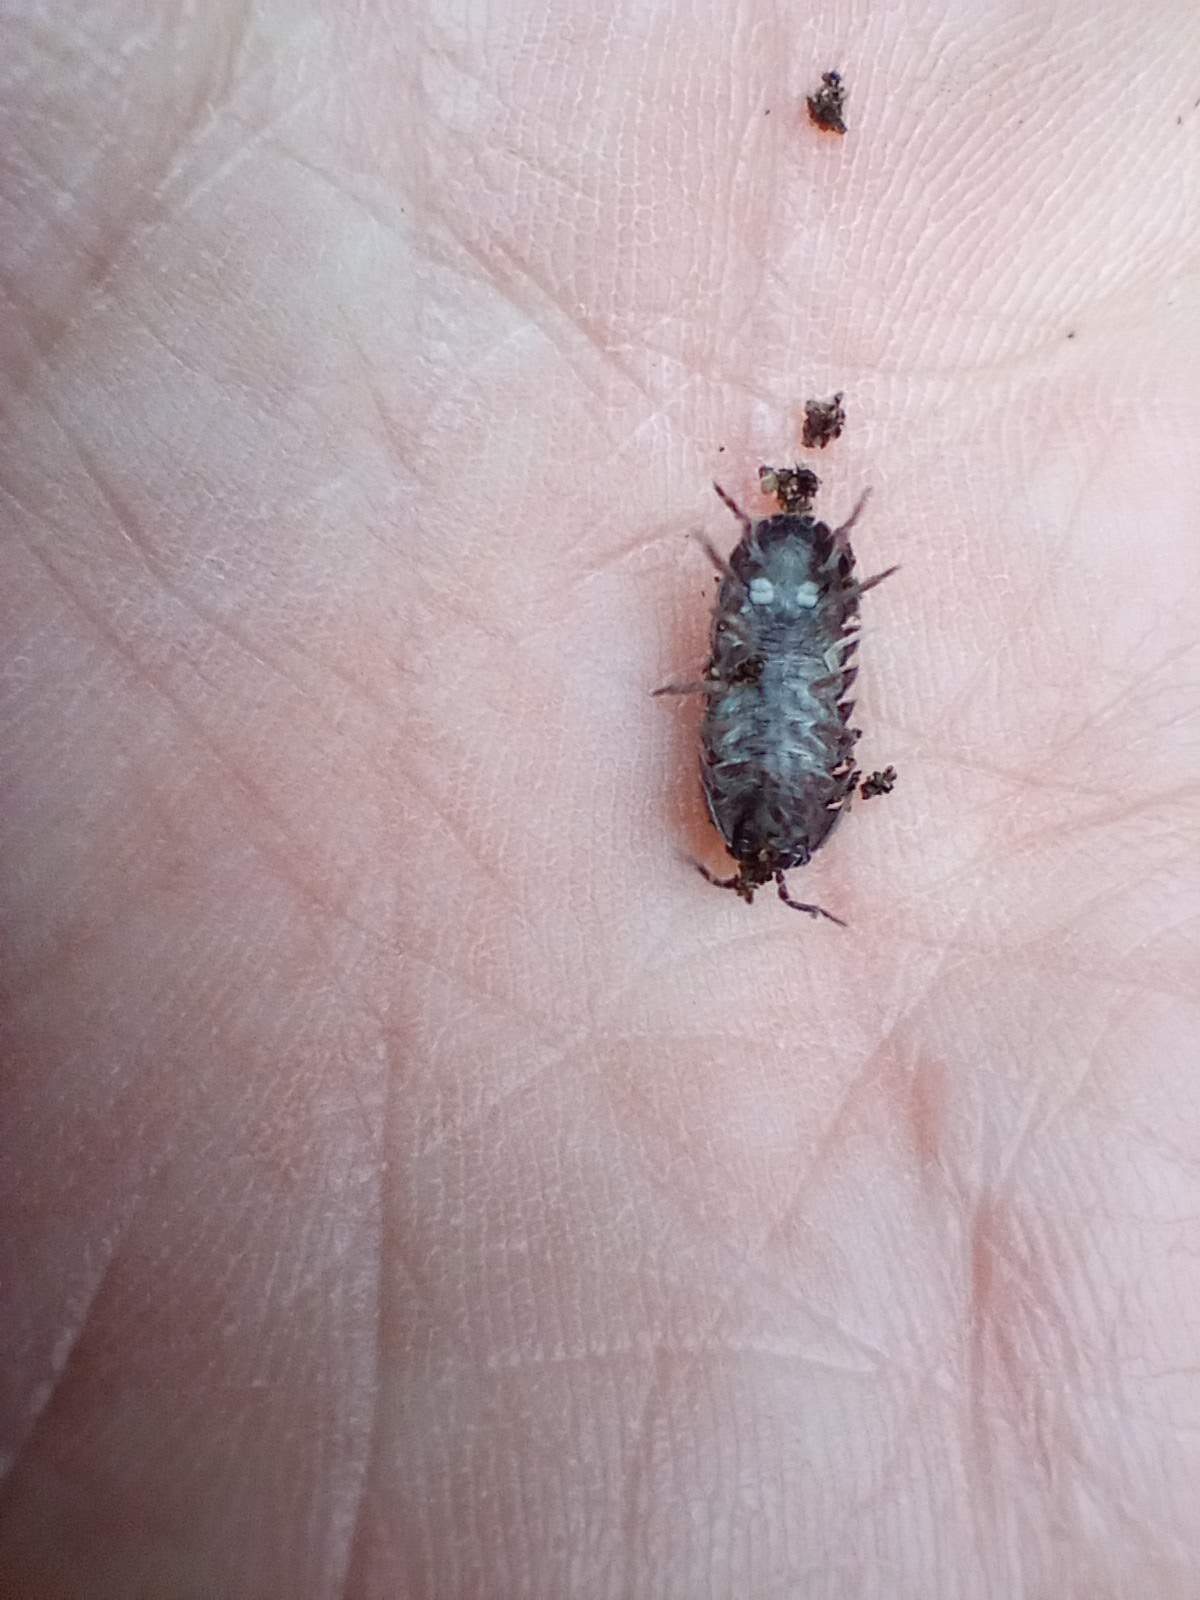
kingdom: Animalia
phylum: Arthropoda
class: Malacostraca
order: Isopoda
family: Armadillidiidae
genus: Armadillidium
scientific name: Armadillidium vulgare
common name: Common pill woodlouse
